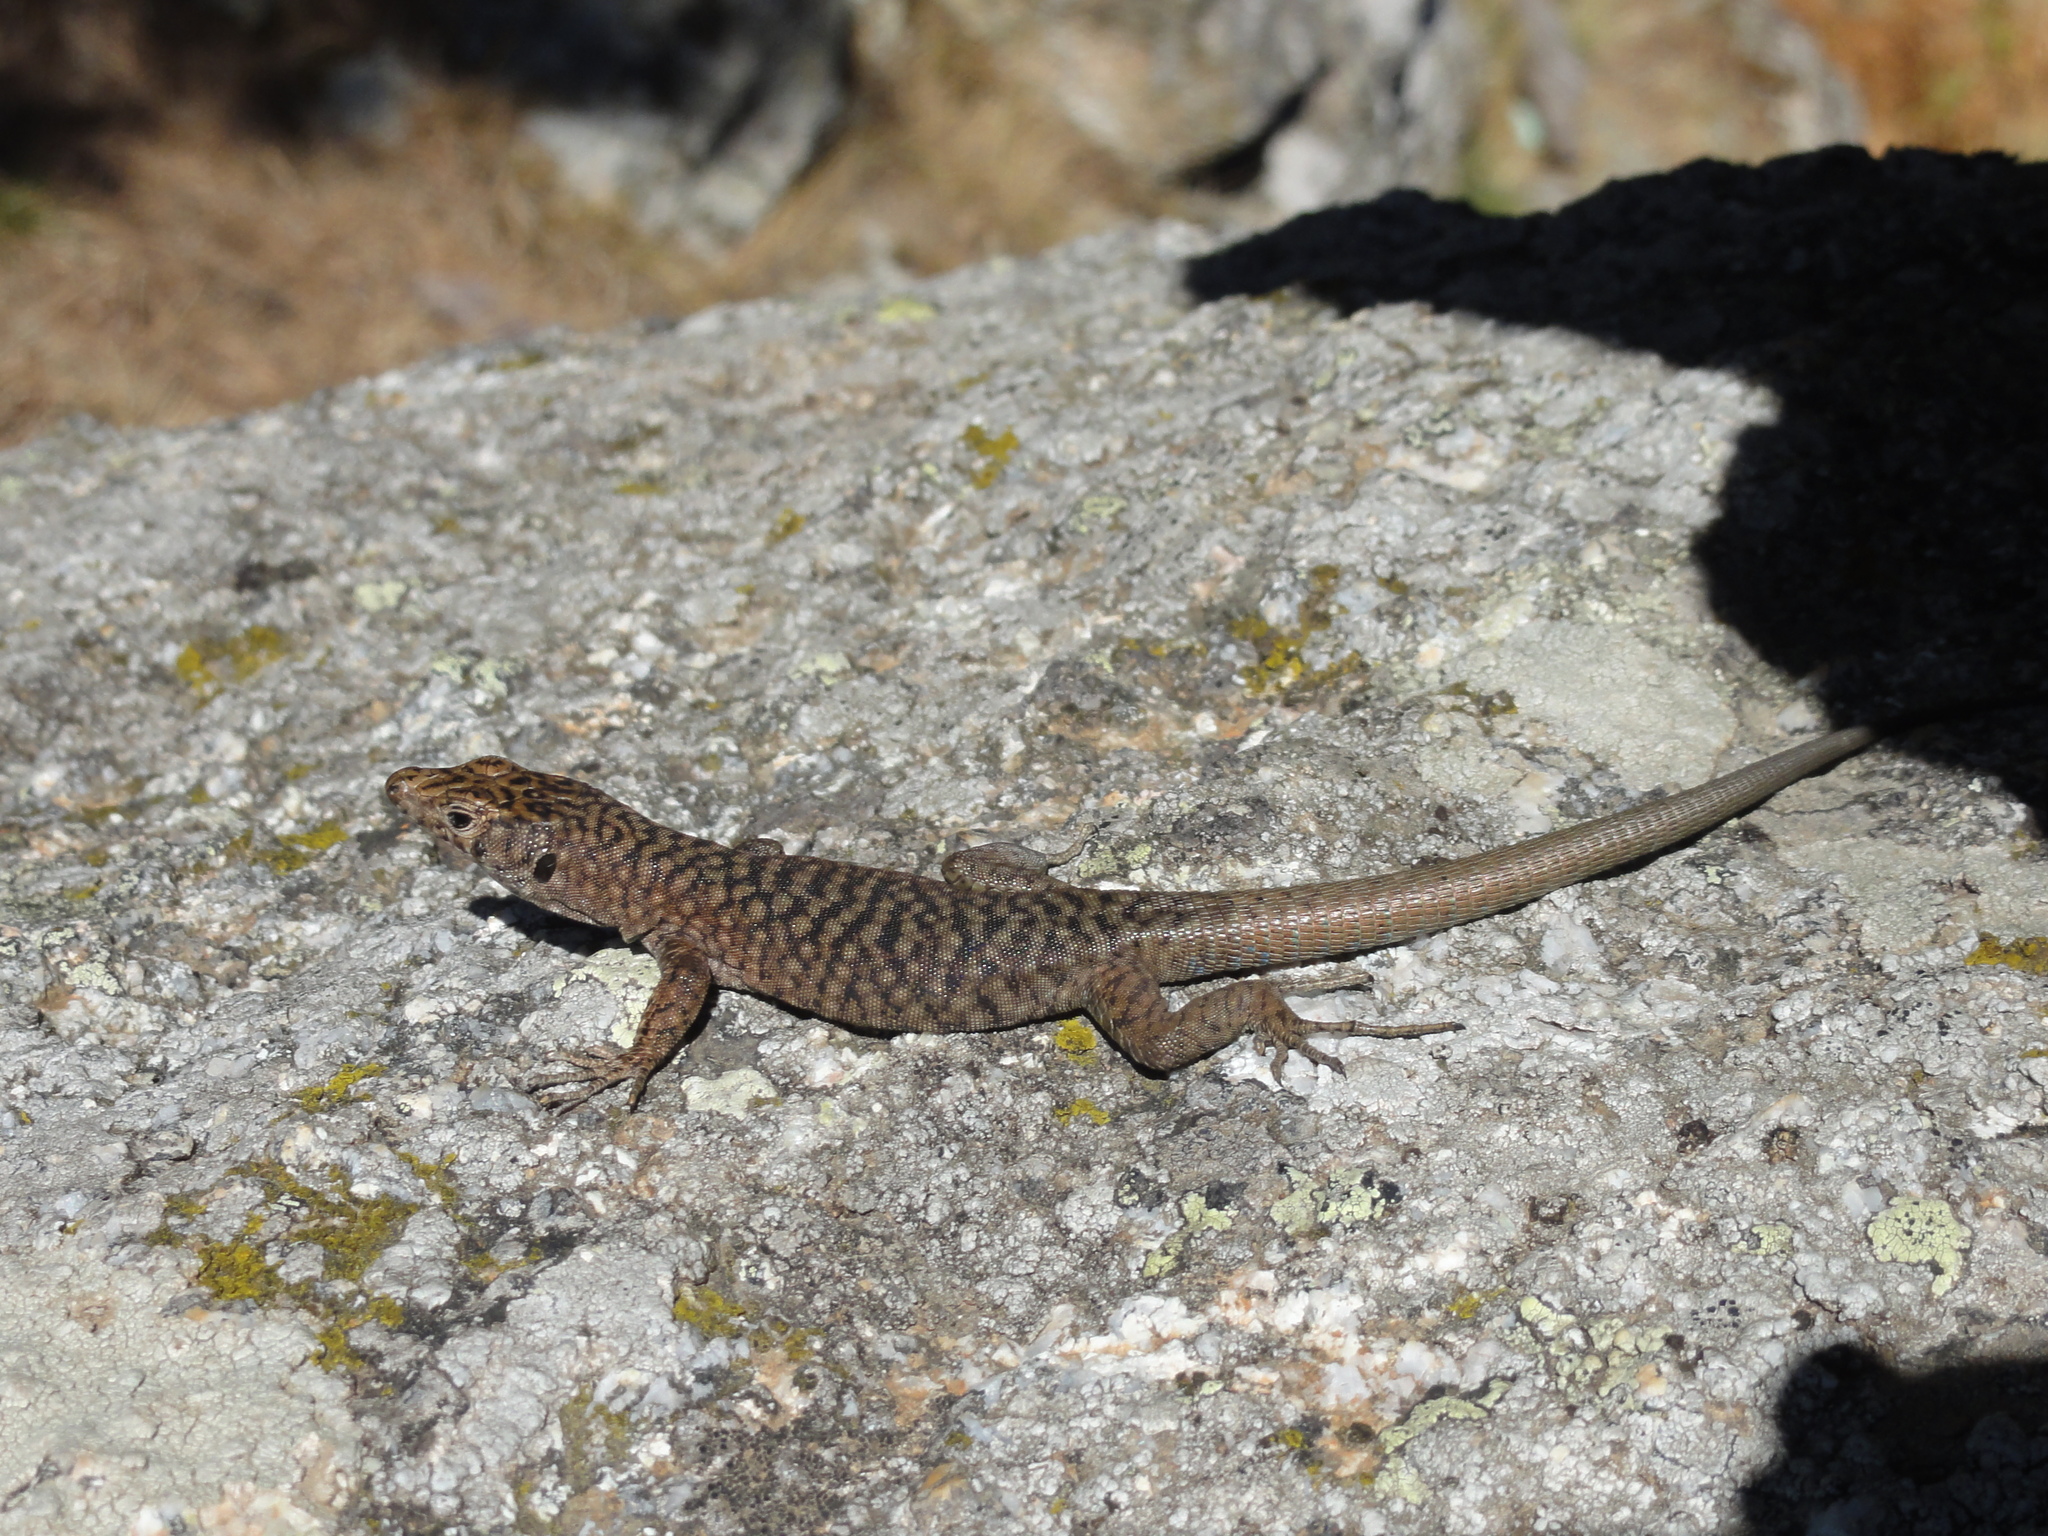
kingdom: Animalia
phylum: Chordata
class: Squamata
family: Lacertidae
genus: Archaeolacerta
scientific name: Archaeolacerta bedriagae
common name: Bedriaga's rock lizard
